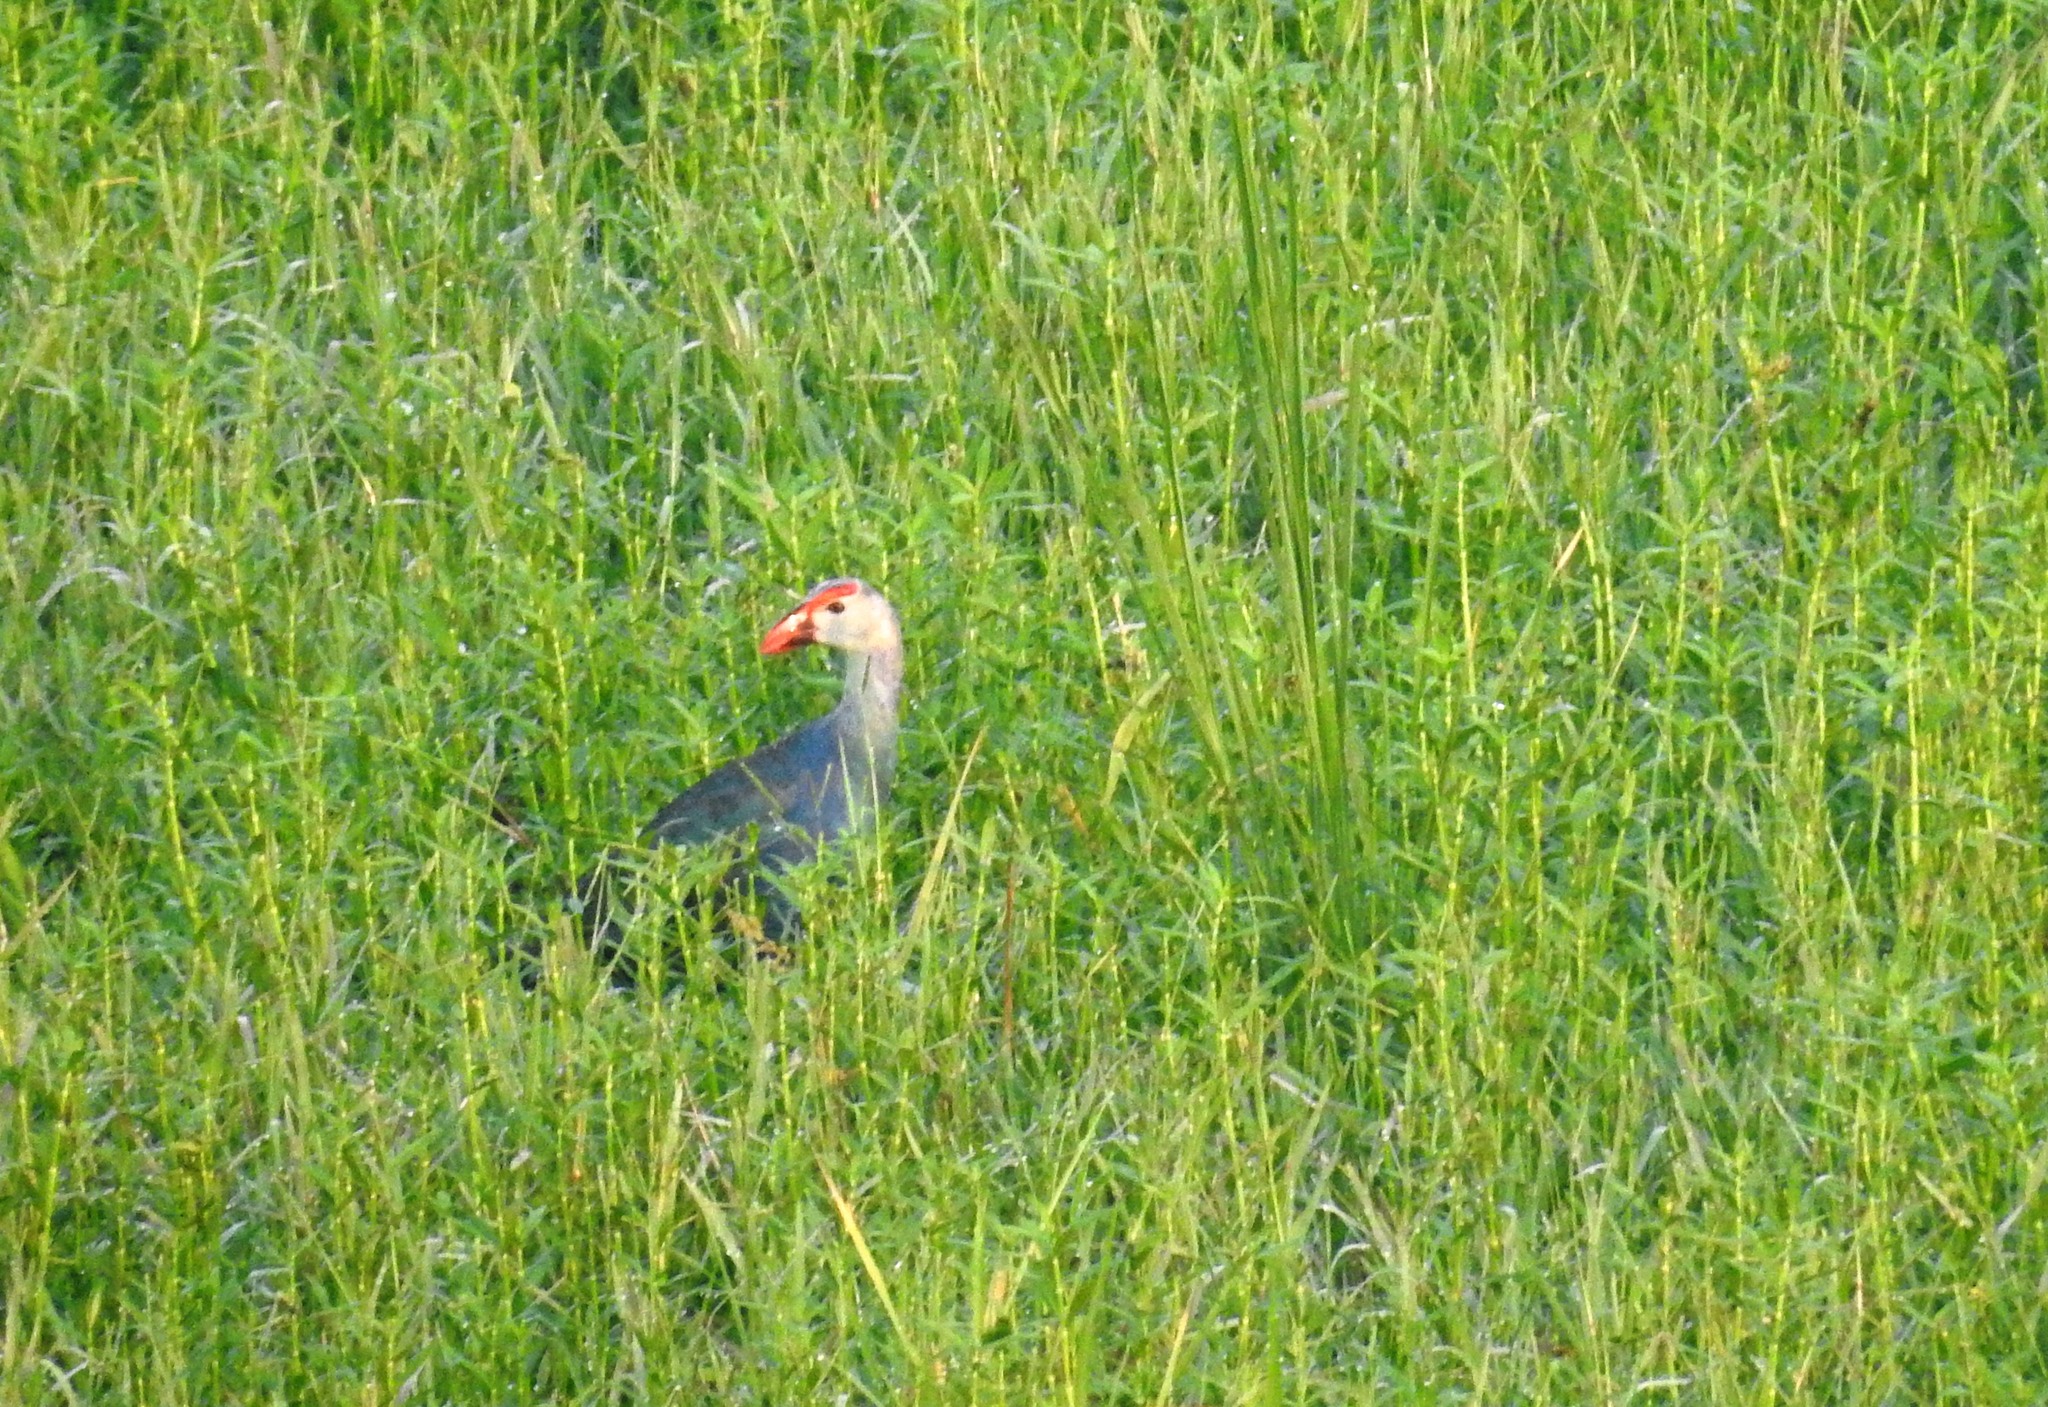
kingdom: Animalia
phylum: Chordata
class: Aves
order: Gruiformes
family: Rallidae
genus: Porphyrio
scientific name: Porphyrio porphyrio
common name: Purple swamphen
